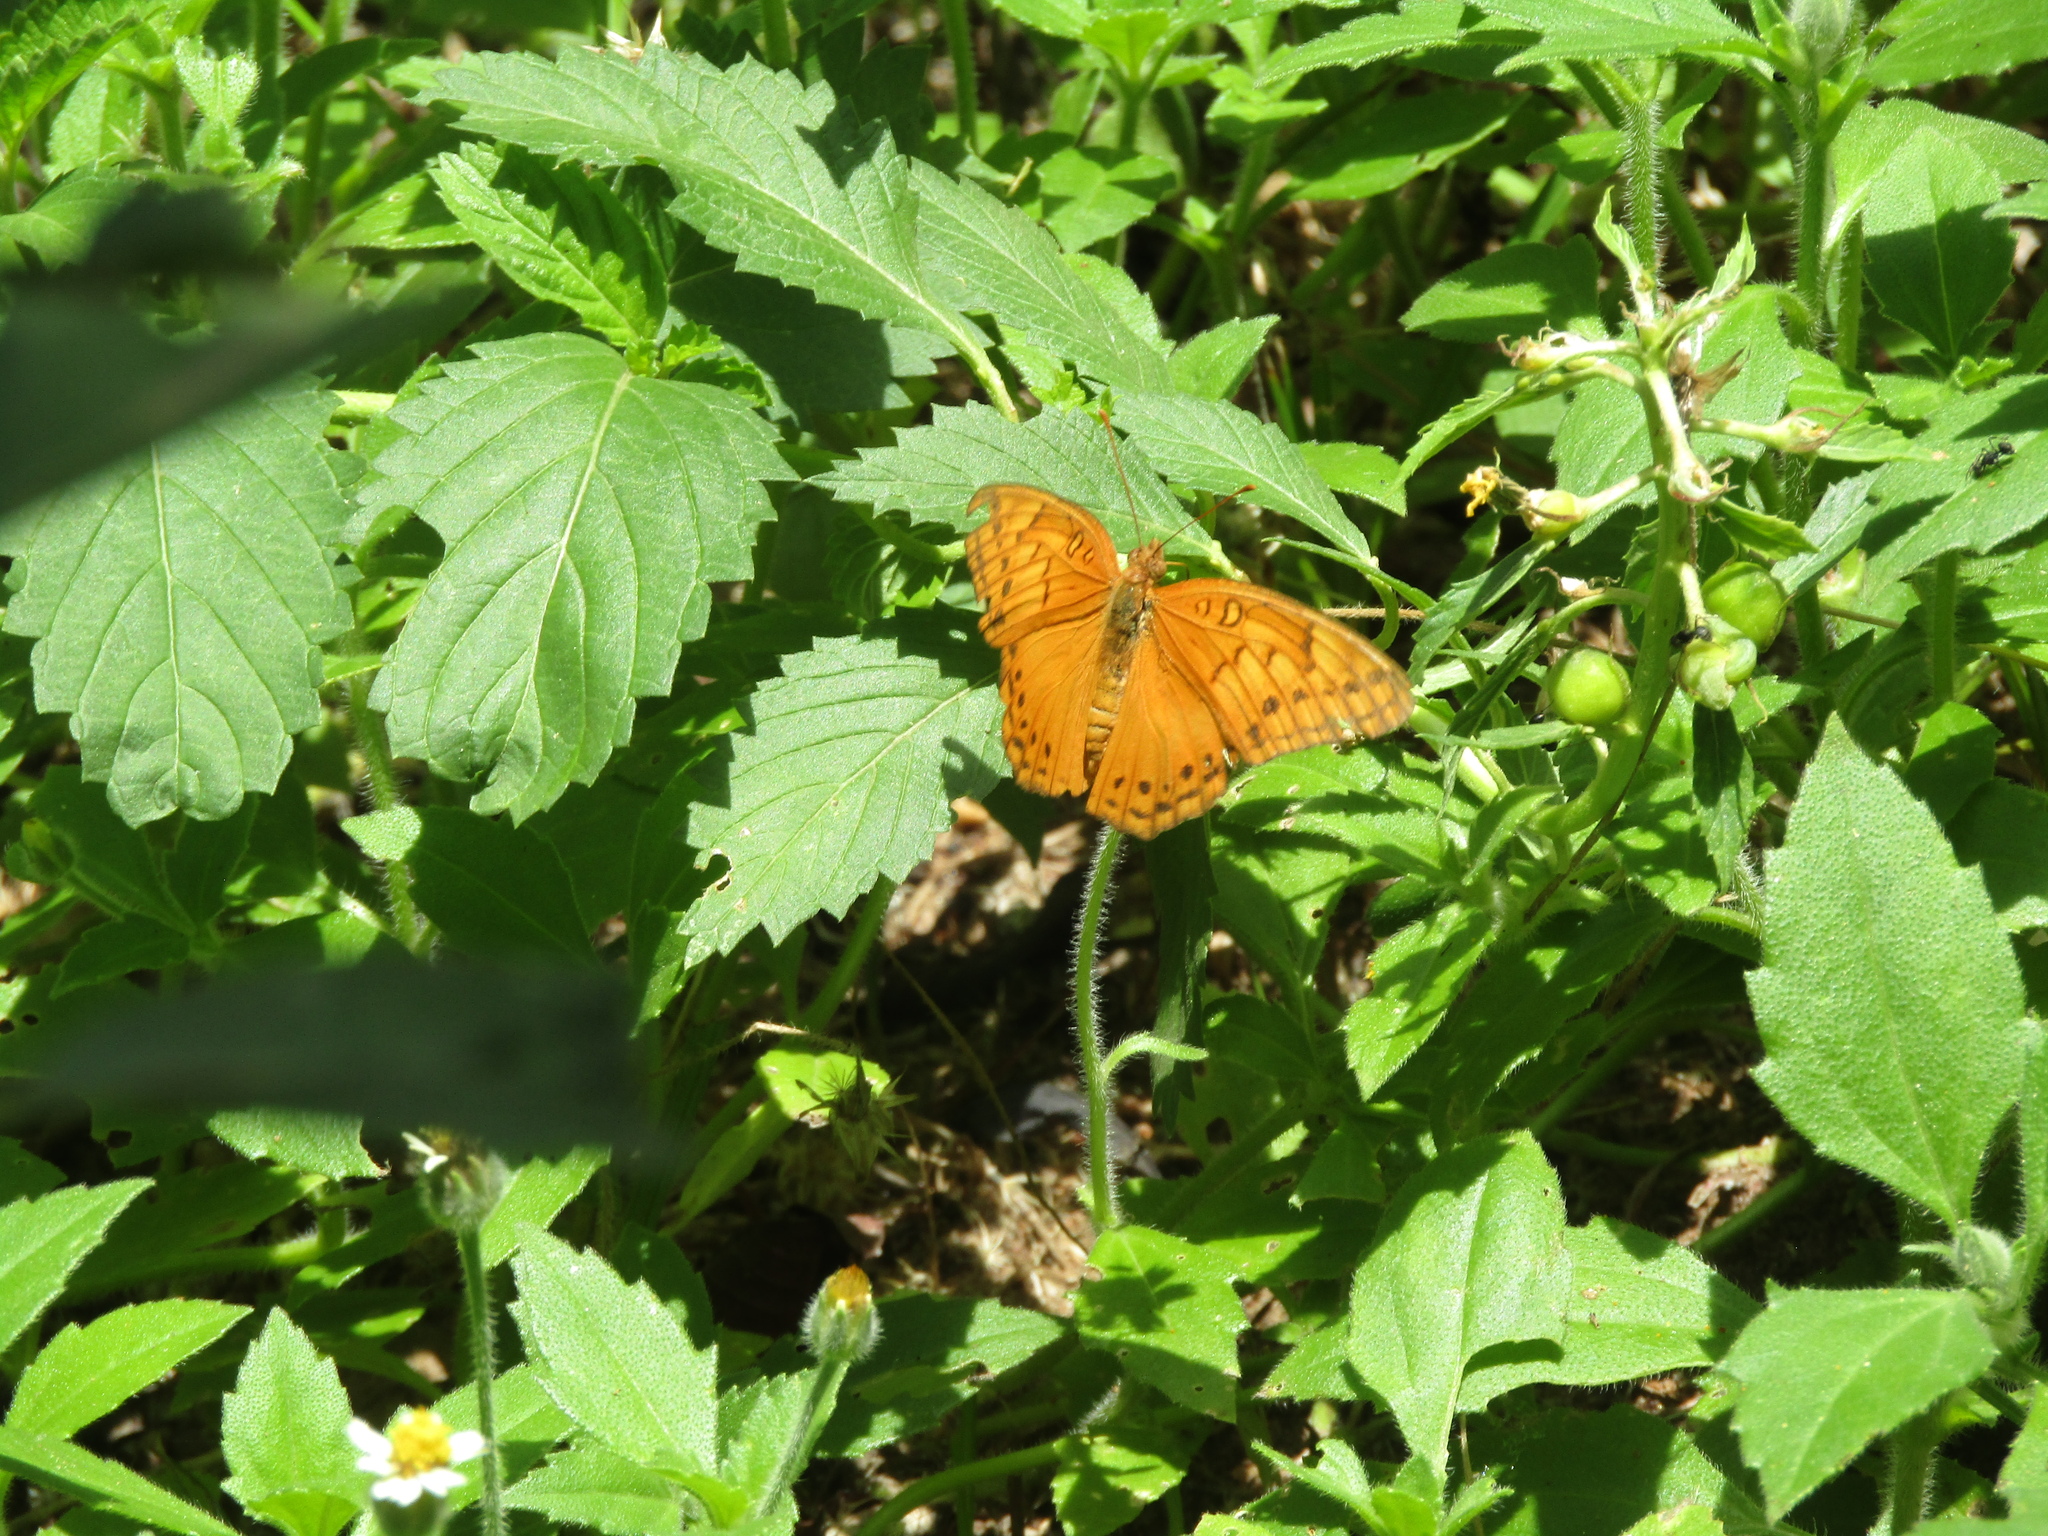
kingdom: Animalia
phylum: Arthropoda
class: Insecta
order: Lepidoptera
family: Nymphalidae
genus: Euptoieta
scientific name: Euptoieta hegesia
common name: Mexican fritillary
